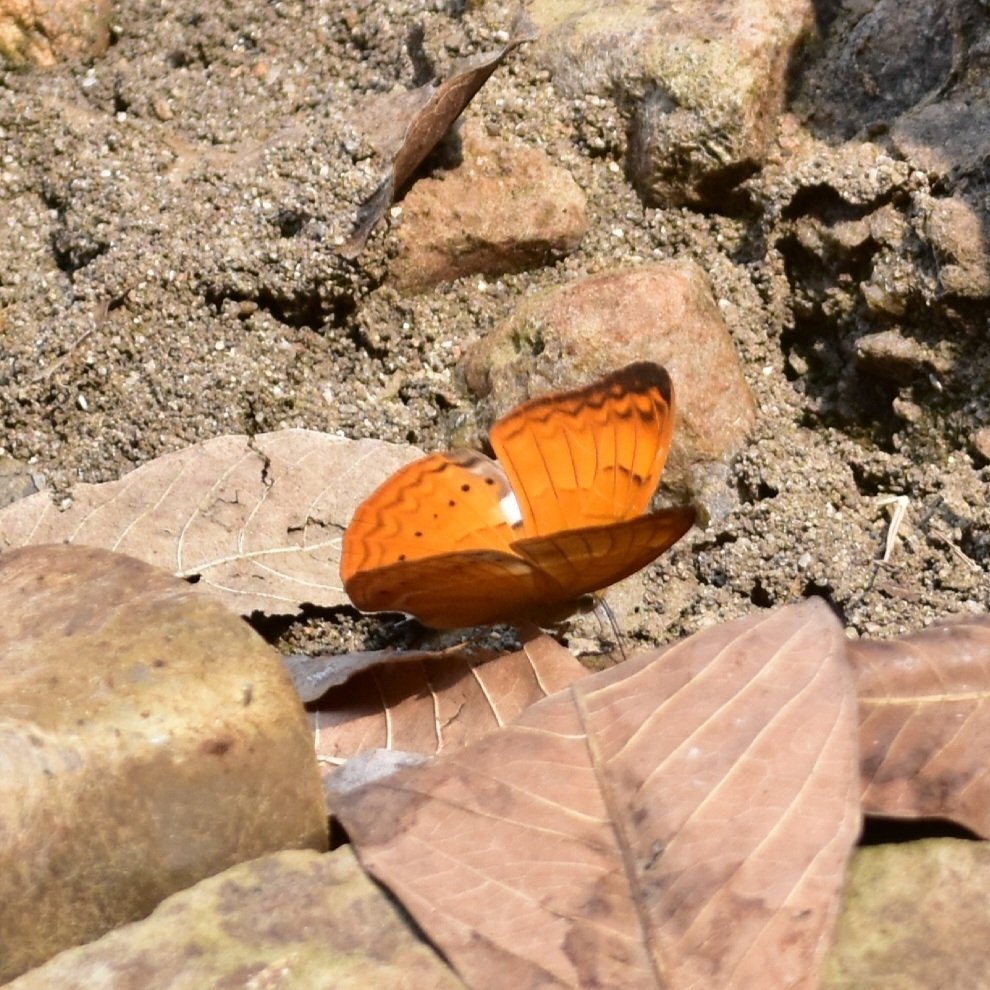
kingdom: Animalia
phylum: Arthropoda
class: Insecta
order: Lepidoptera
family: Nymphalidae
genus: Cirrochroa
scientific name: Cirrochroa thais
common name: Tamil yeoman
